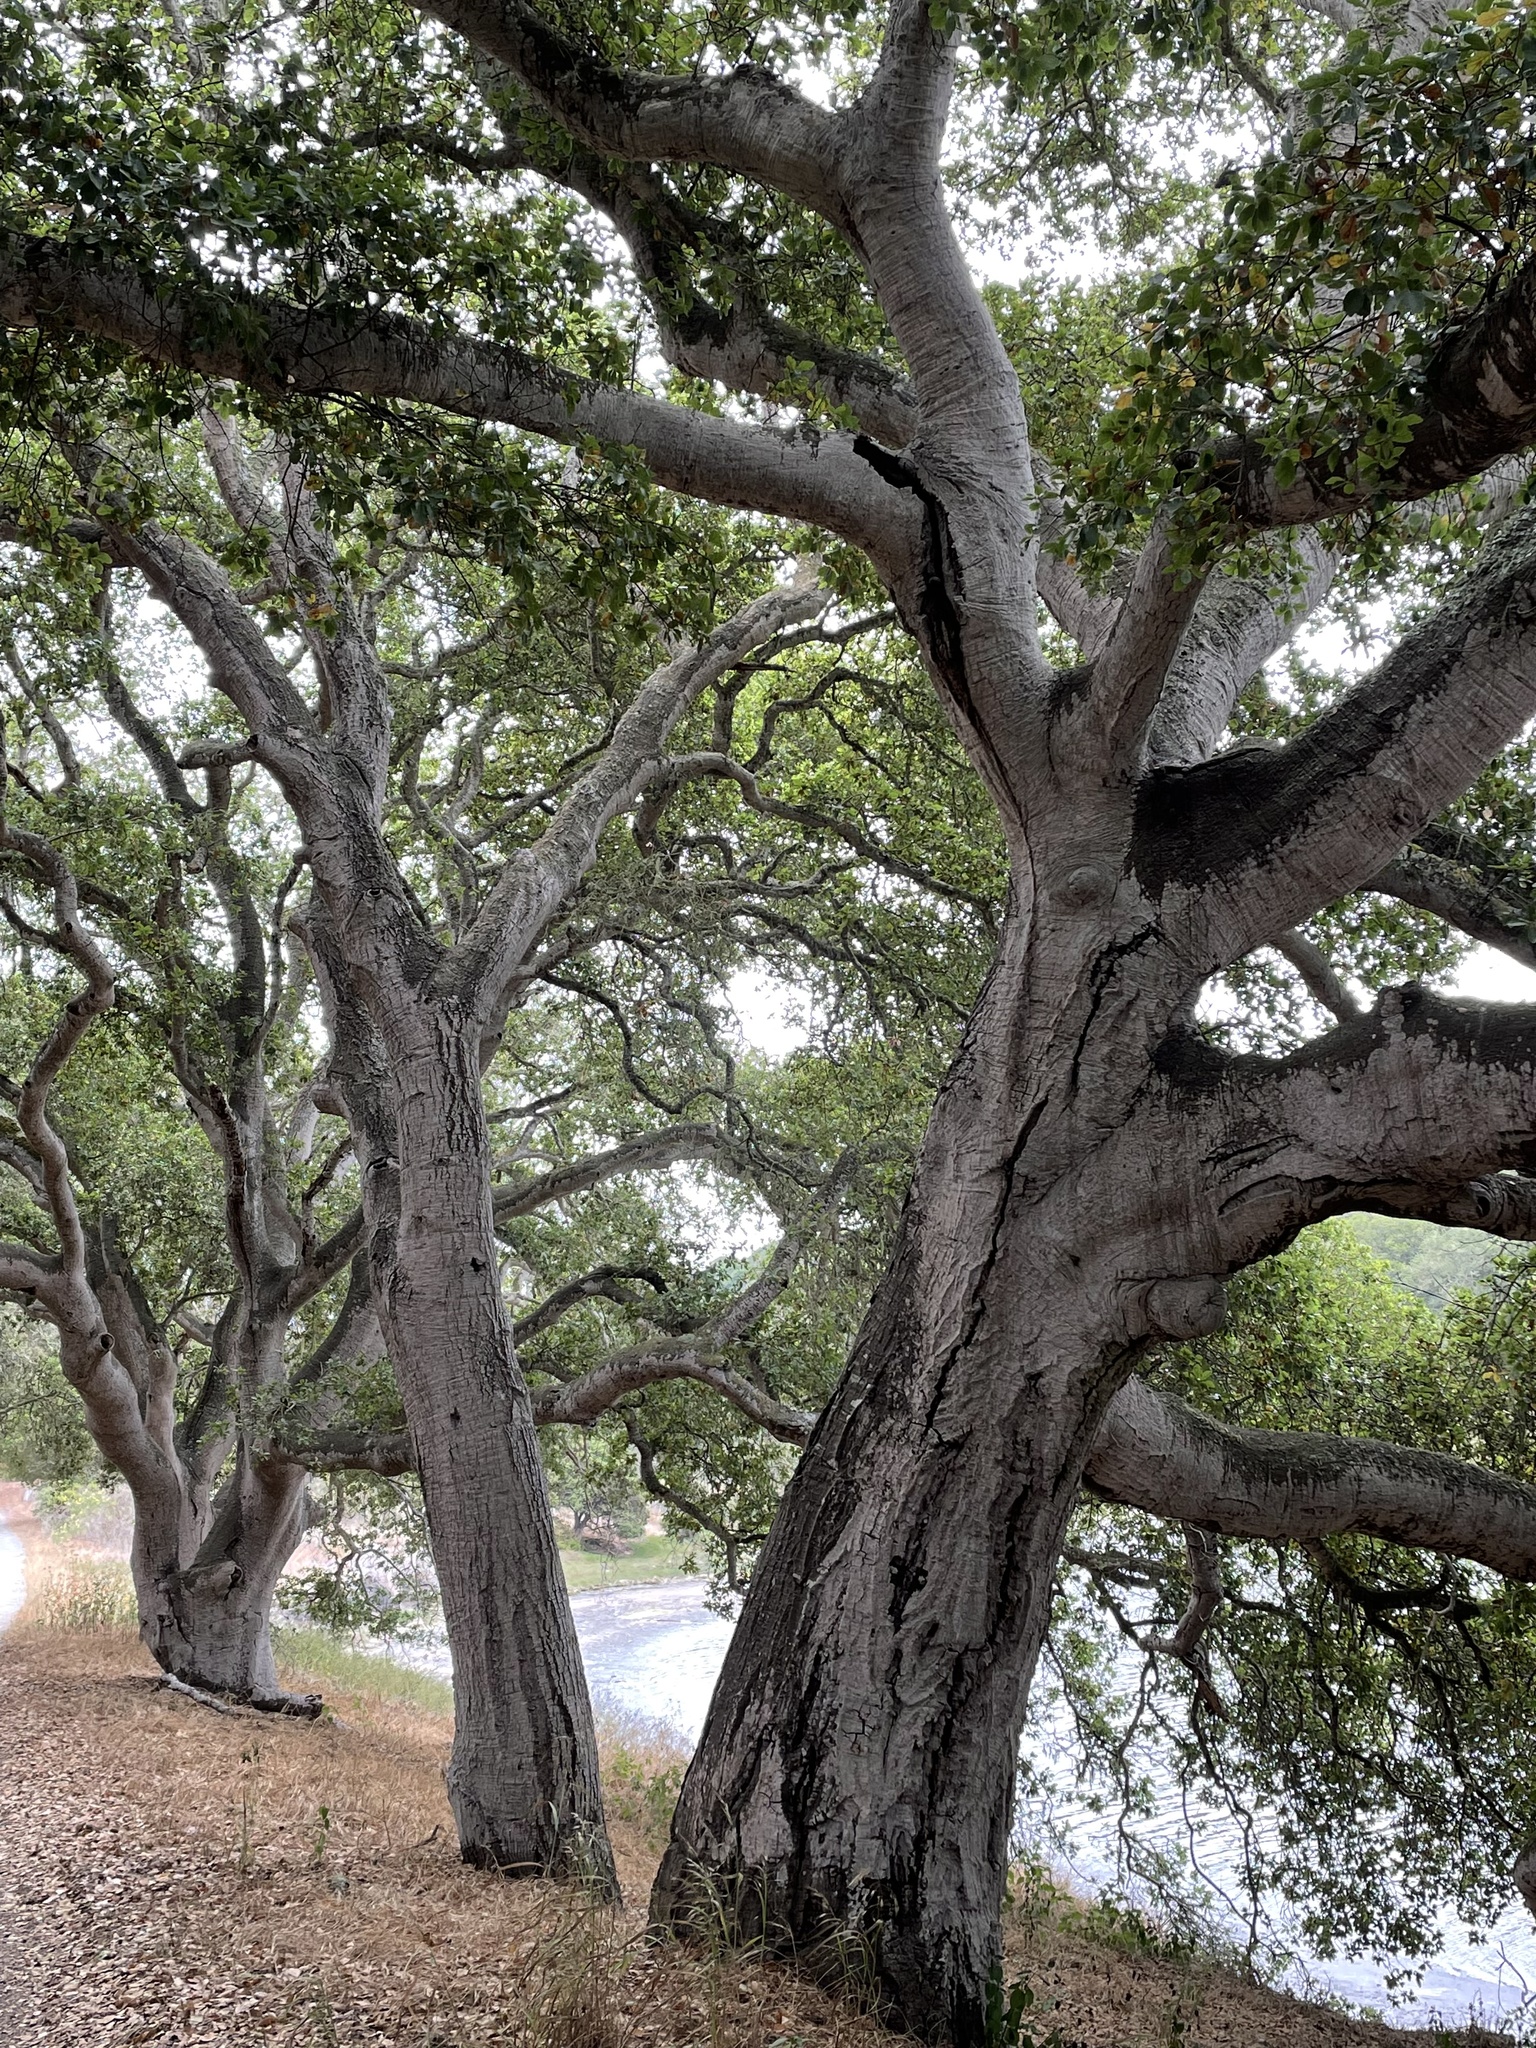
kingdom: Plantae
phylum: Tracheophyta
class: Magnoliopsida
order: Fagales
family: Fagaceae
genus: Quercus
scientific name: Quercus agrifolia
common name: California live oak
